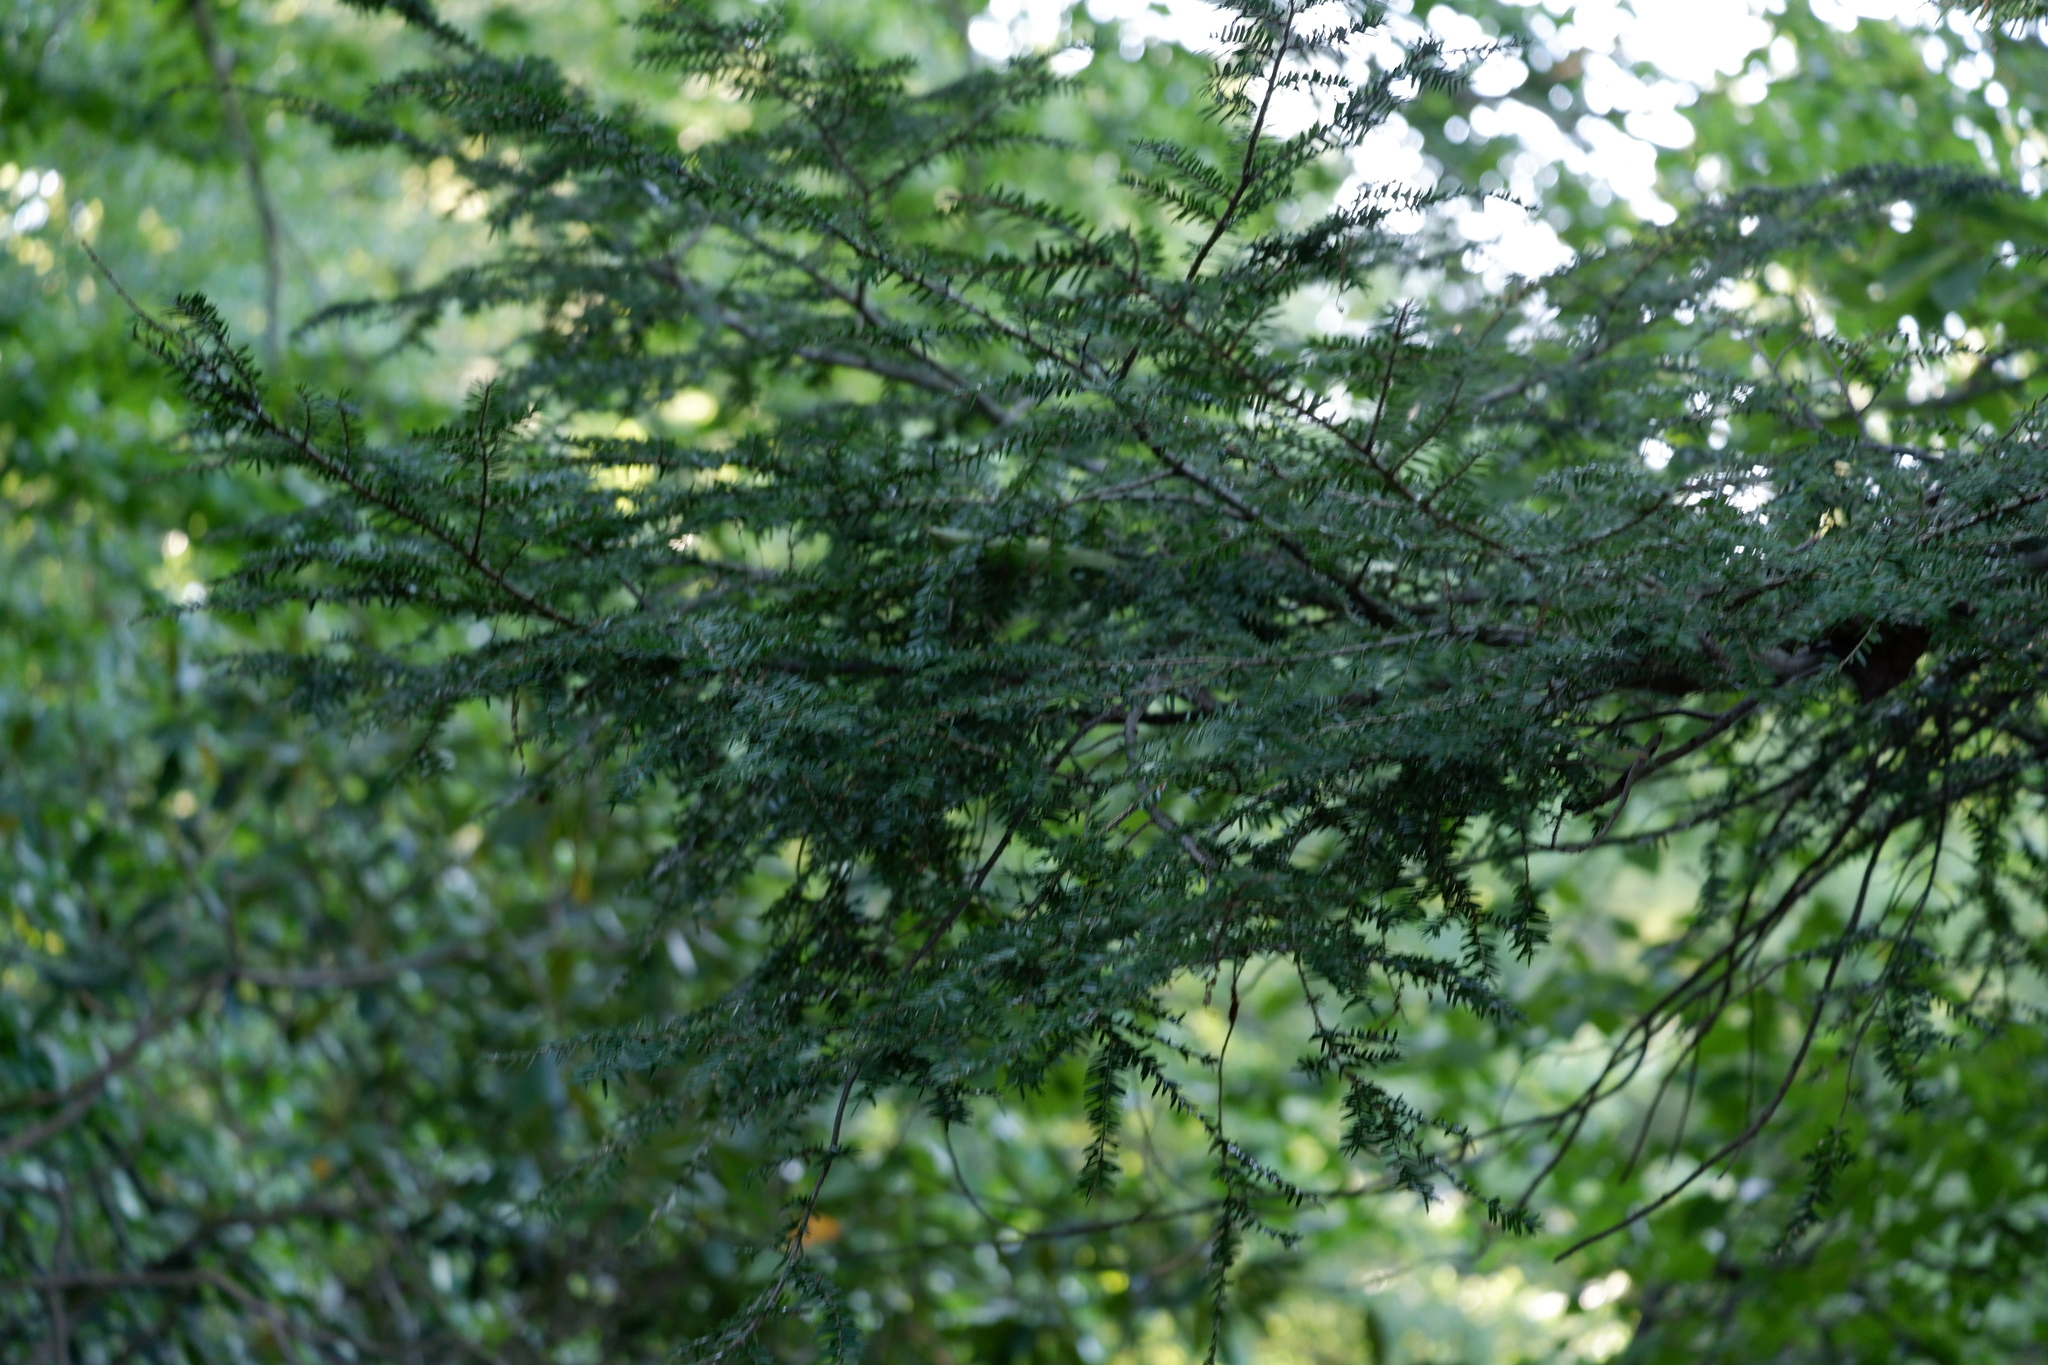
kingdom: Plantae
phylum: Tracheophyta
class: Pinopsida
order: Pinales
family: Pinaceae
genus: Tsuga
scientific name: Tsuga canadensis
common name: Eastern hemlock
